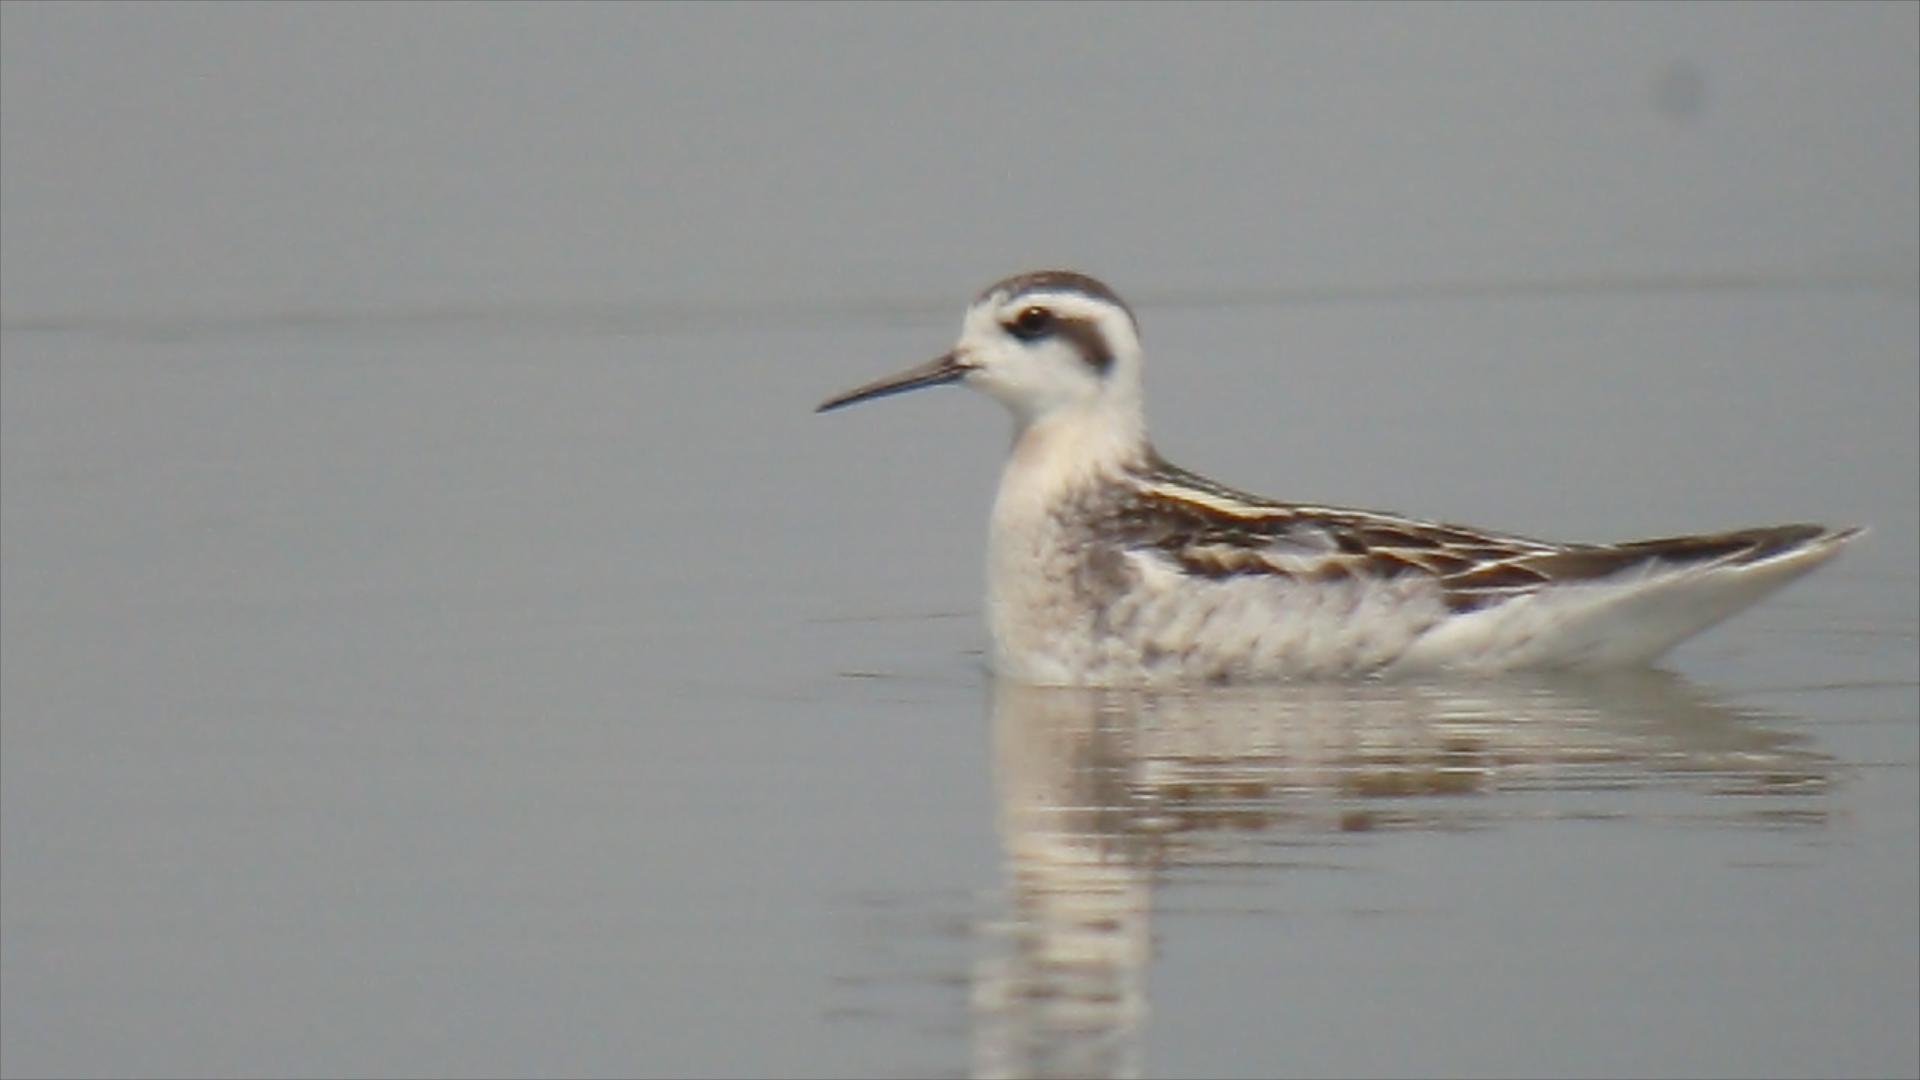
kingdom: Animalia
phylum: Chordata
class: Aves
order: Charadriiformes
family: Scolopacidae
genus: Phalaropus
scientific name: Phalaropus lobatus
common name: Red-necked phalarope
